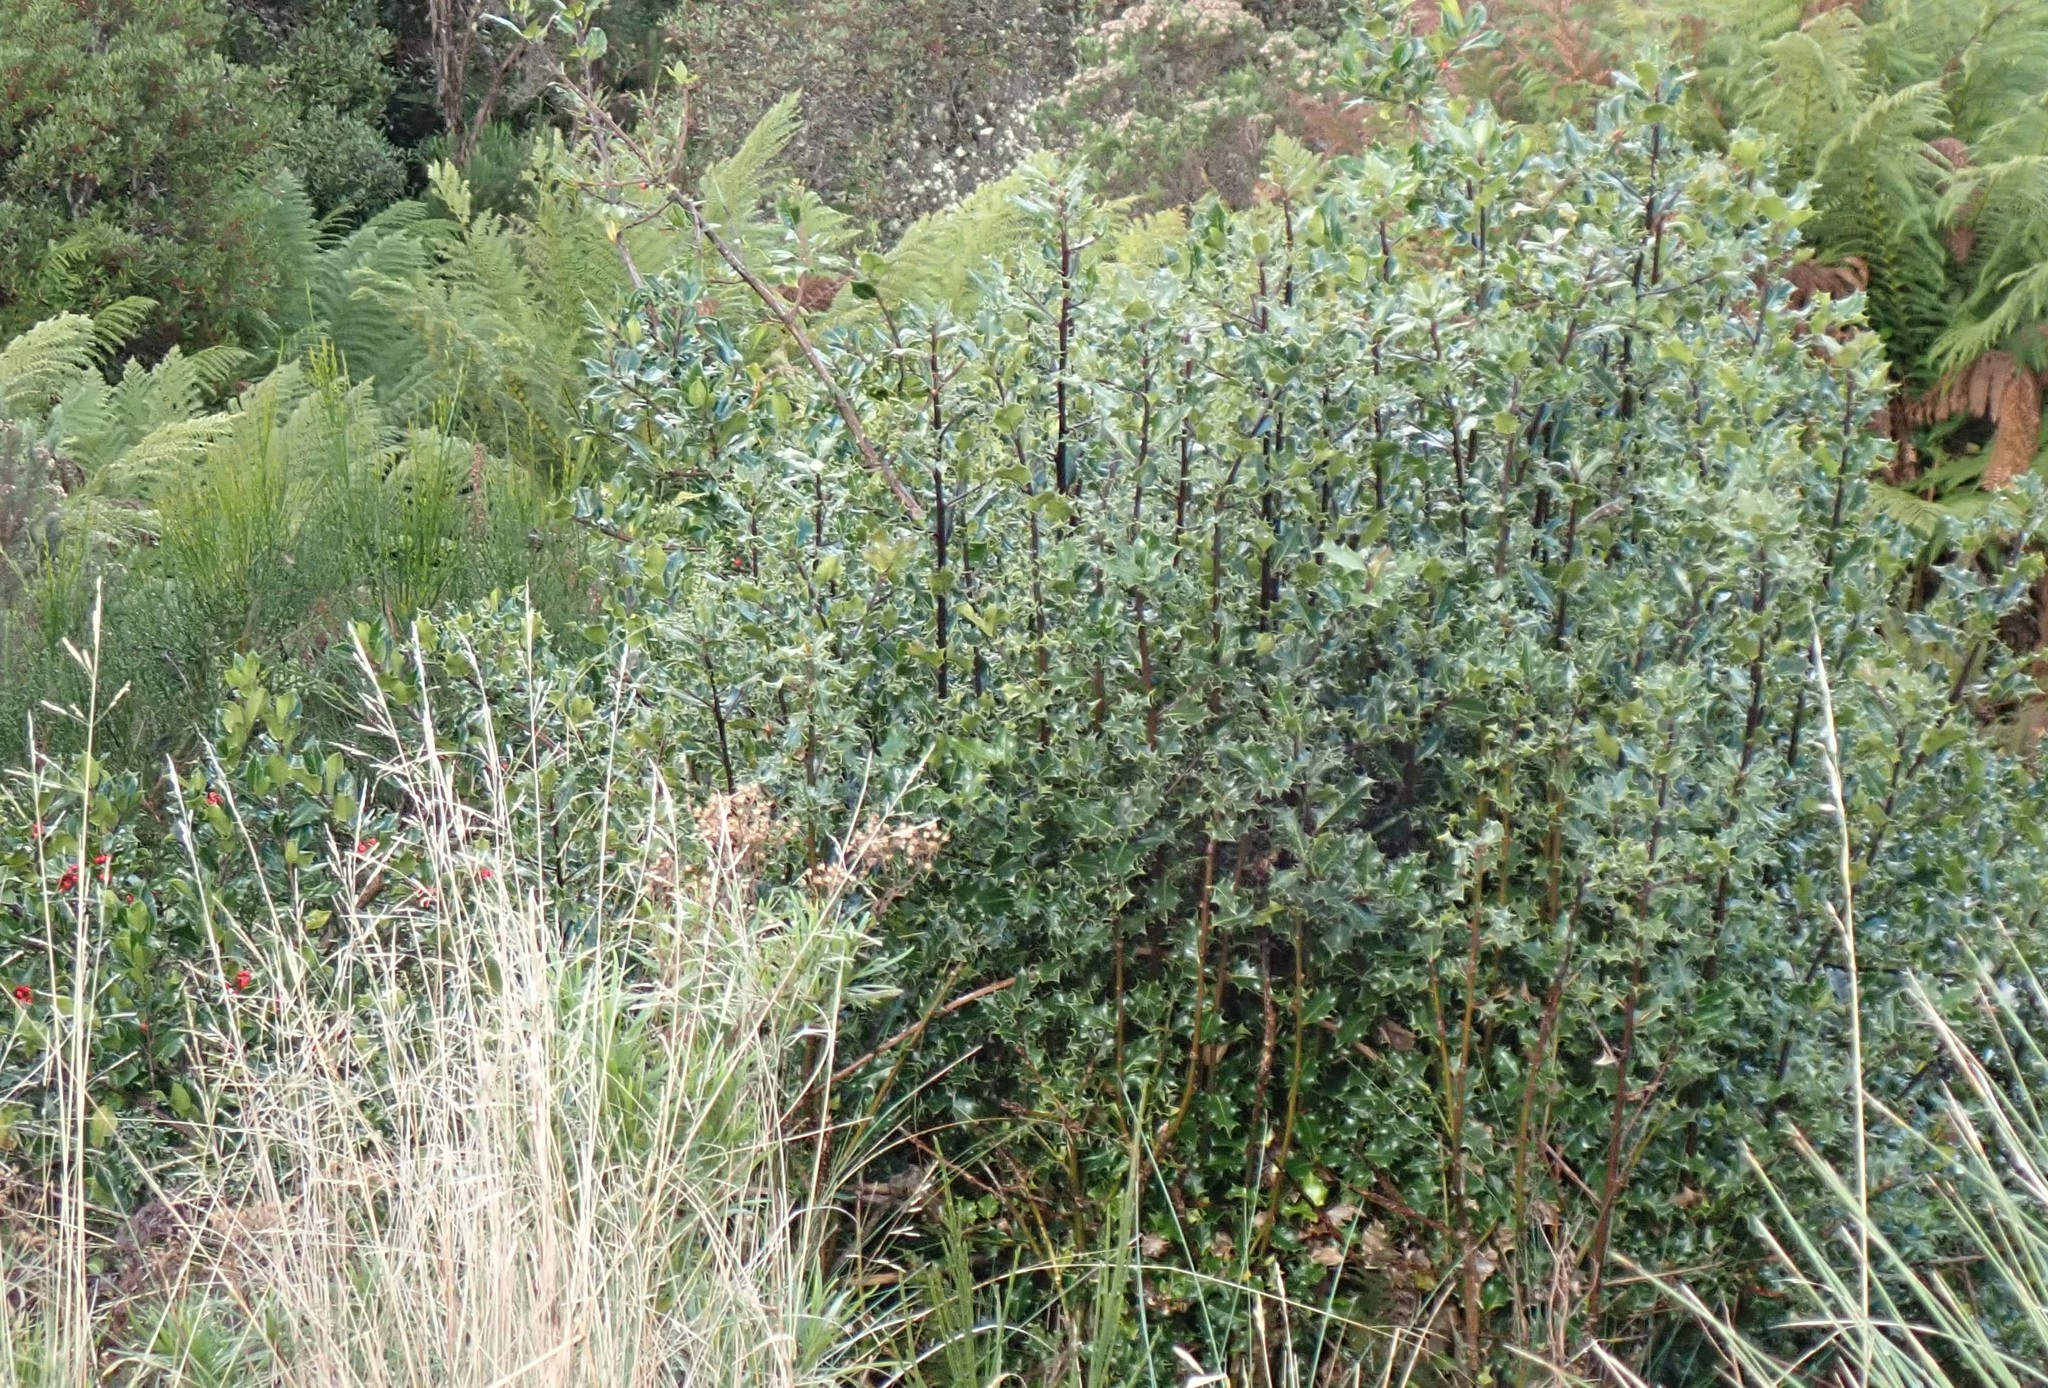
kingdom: Plantae
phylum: Tracheophyta
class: Magnoliopsida
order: Aquifoliales
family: Aquifoliaceae
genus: Ilex
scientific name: Ilex aquifolium
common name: English holly
